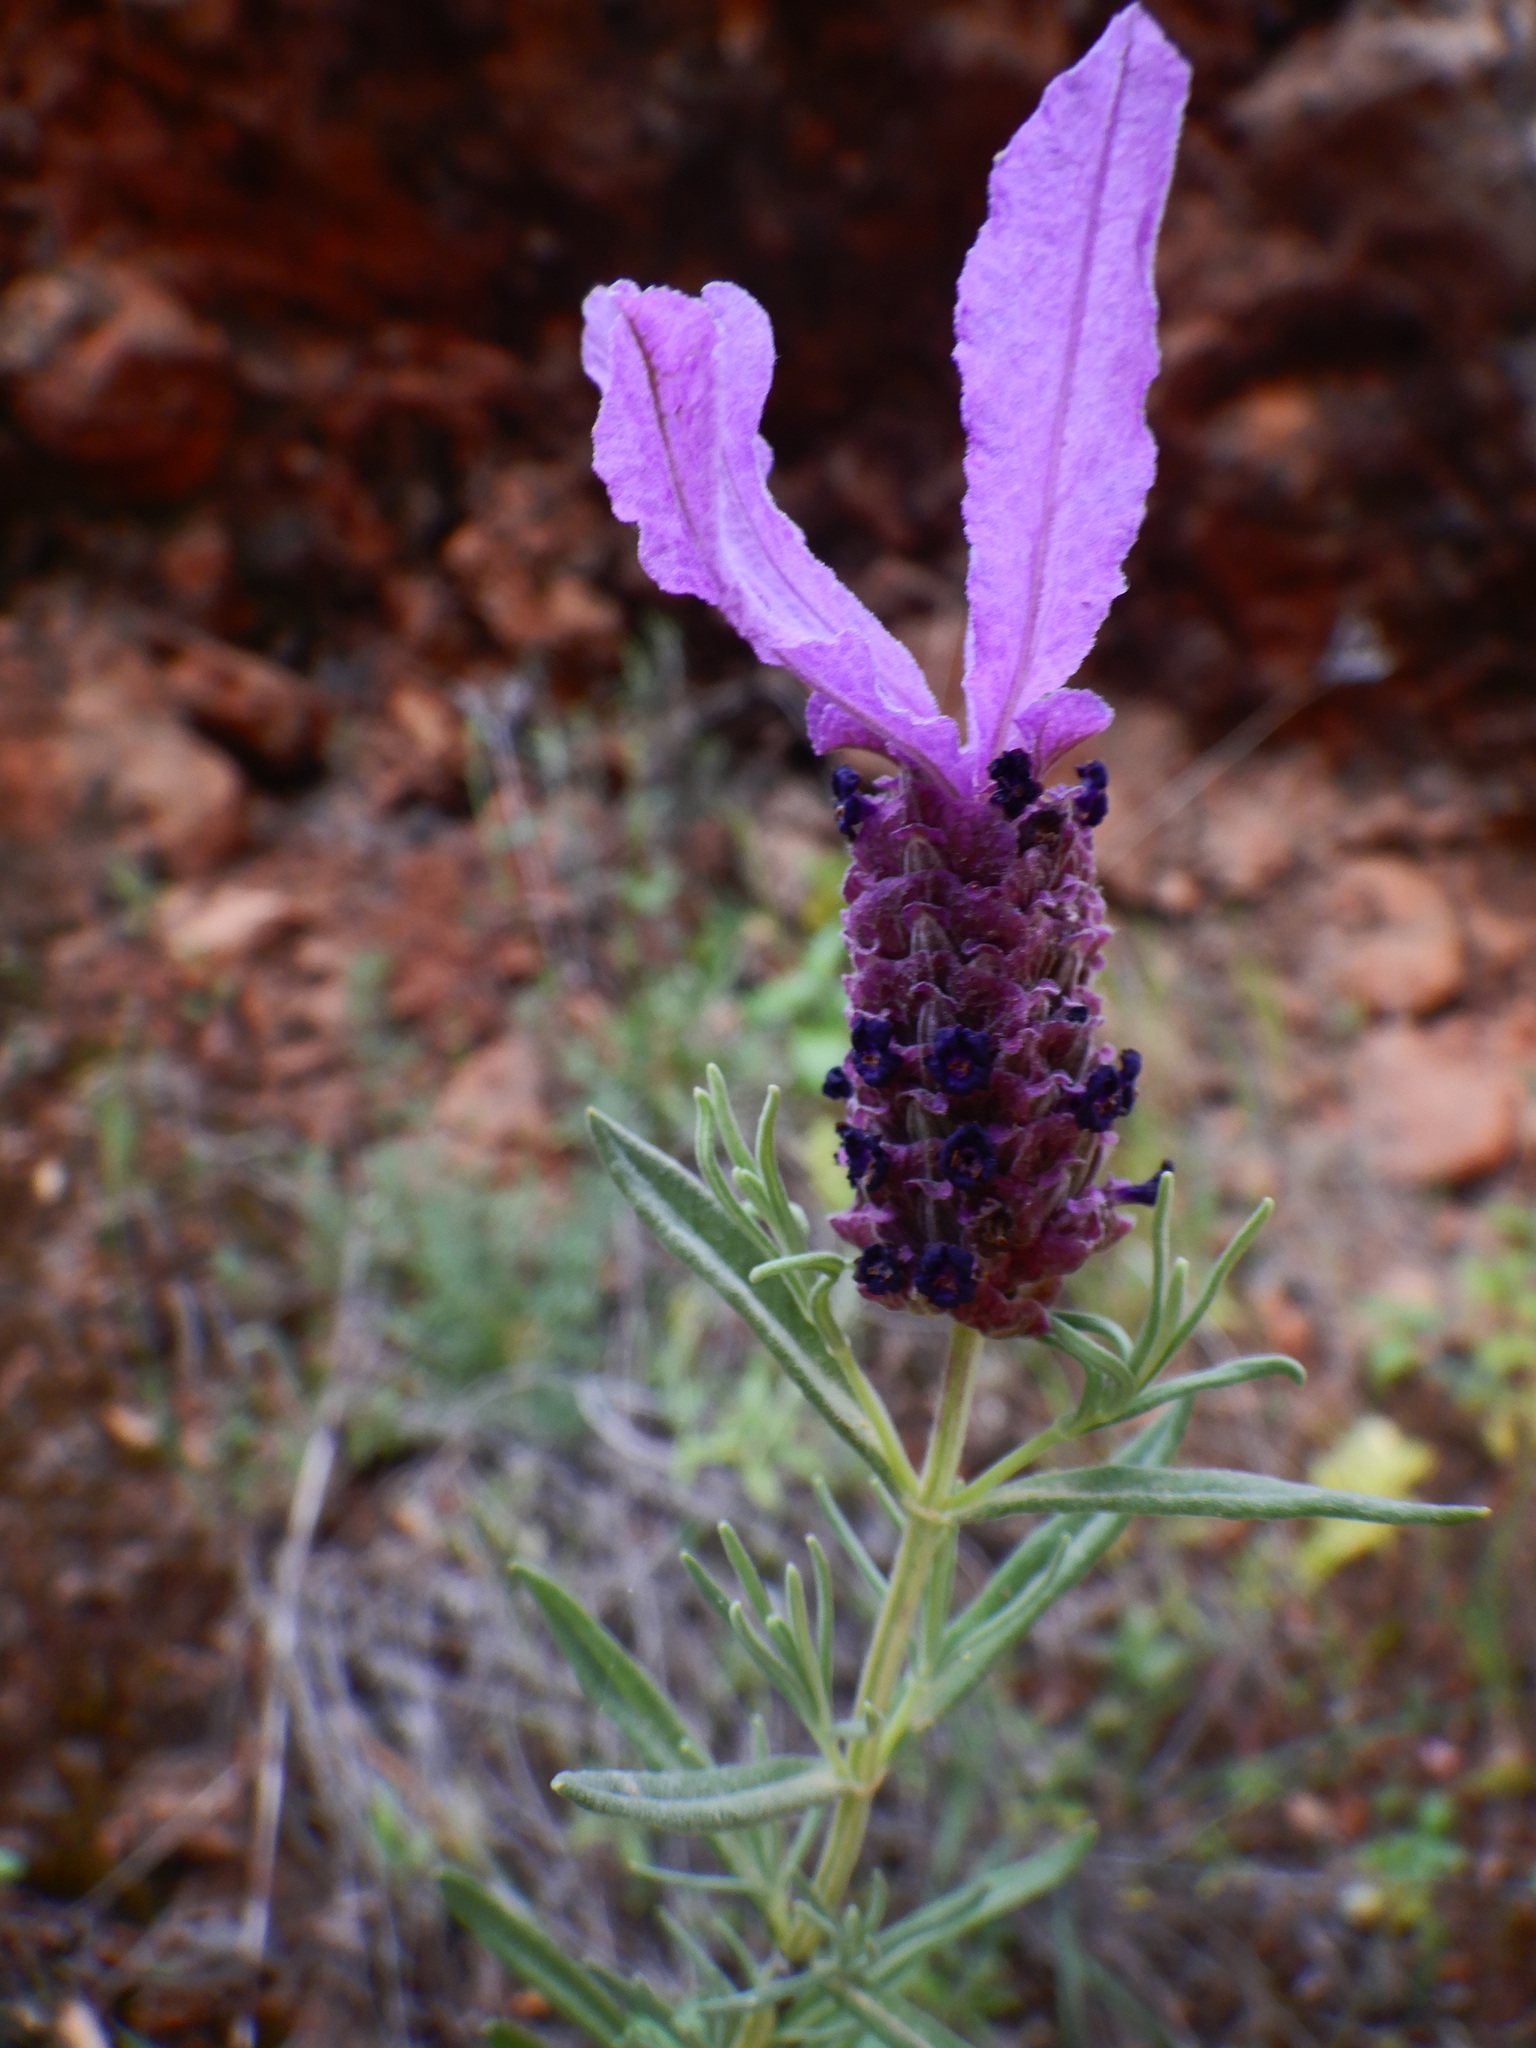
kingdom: Plantae
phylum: Tracheophyta
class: Magnoliopsida
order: Lamiales
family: Lamiaceae
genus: Lavandula
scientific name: Lavandula stoechas
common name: French lavender
